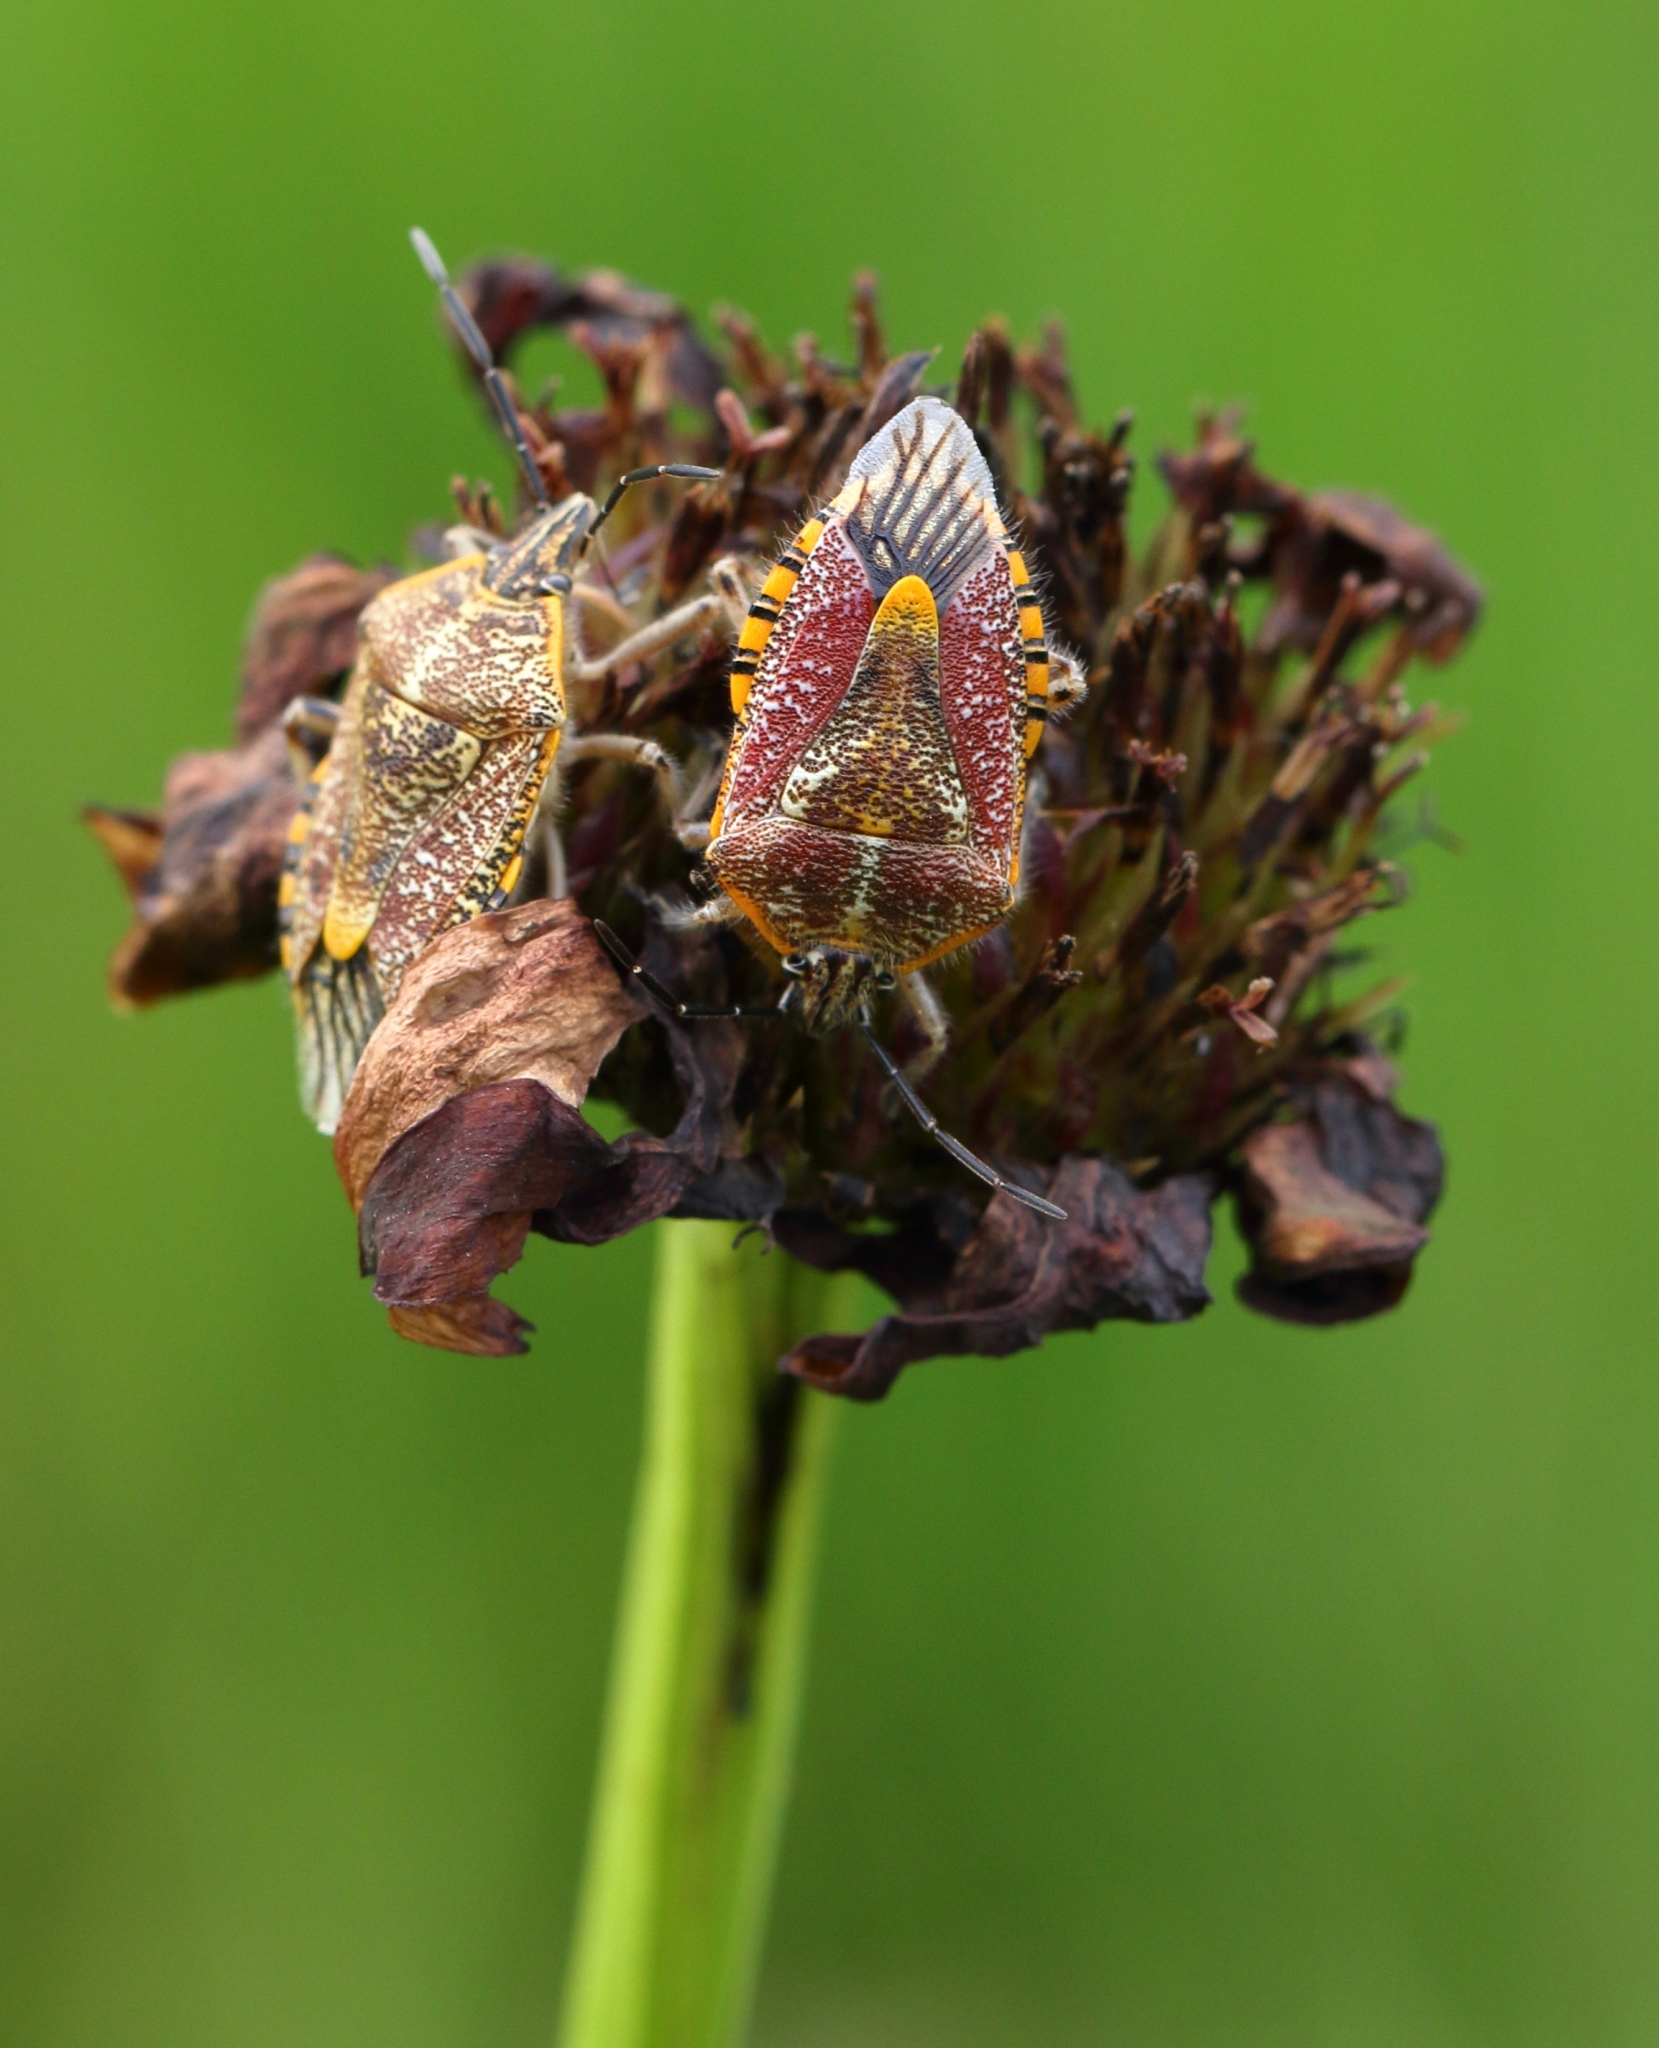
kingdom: Animalia
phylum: Arthropoda
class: Insecta
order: Hemiptera
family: Pentatomidae
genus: Agonoscelis
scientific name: Agonoscelis versicoloratus
